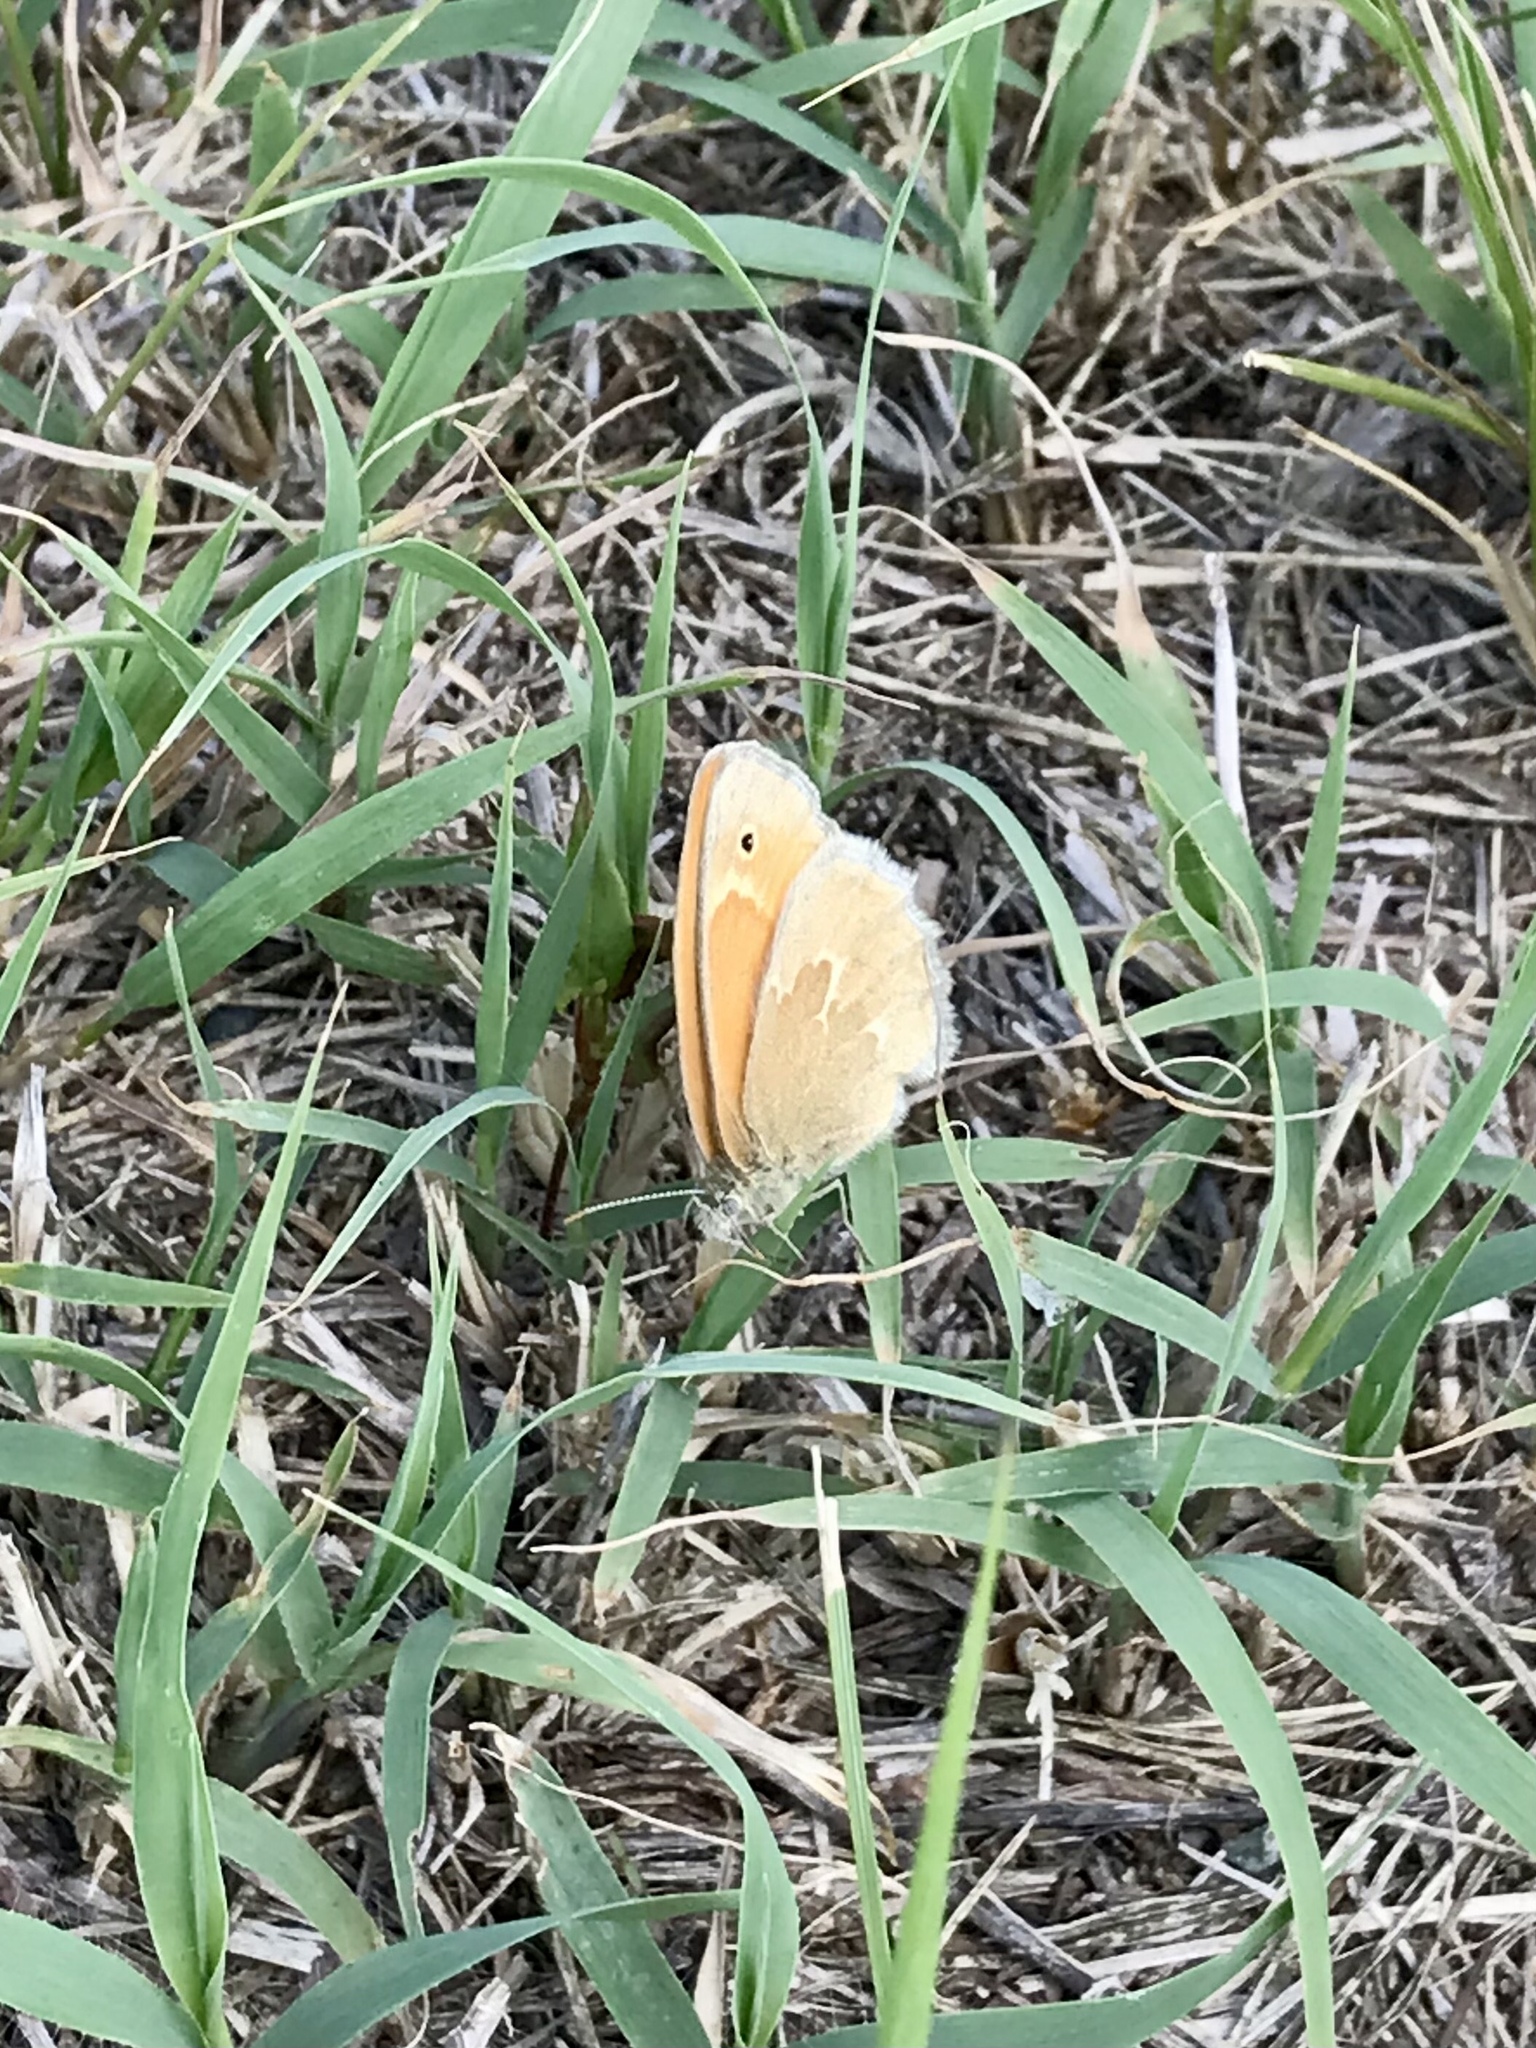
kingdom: Animalia
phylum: Arthropoda
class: Insecta
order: Lepidoptera
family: Nymphalidae
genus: Coenonympha
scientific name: Coenonympha california
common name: Common ringlet
